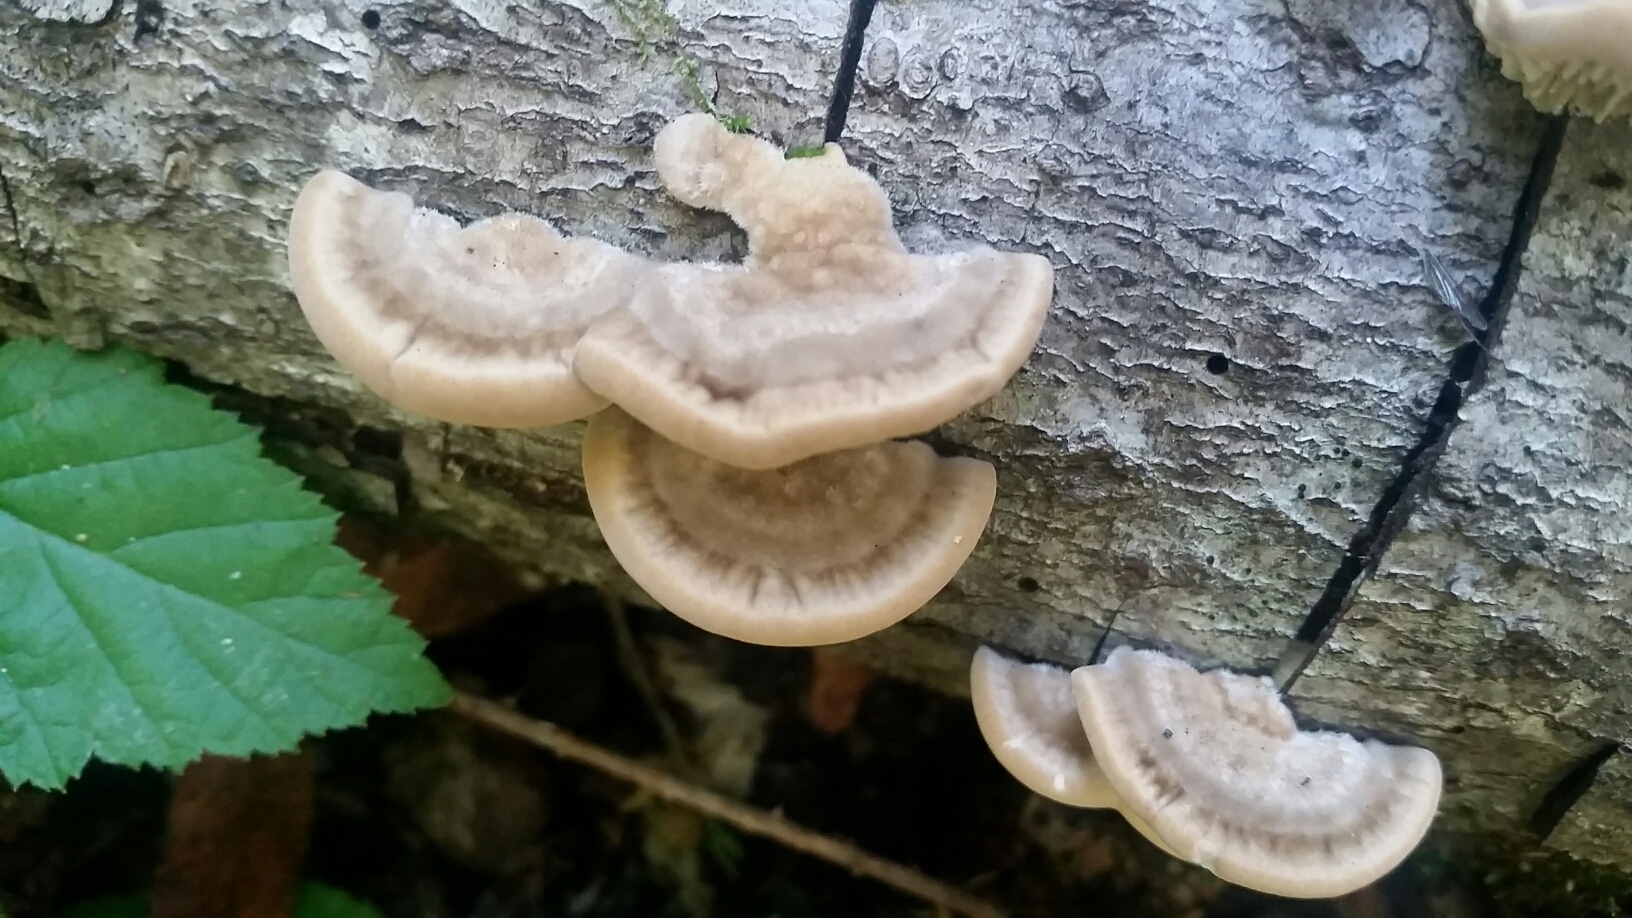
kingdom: Fungi
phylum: Basidiomycota
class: Agaricomycetes
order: Polyporales
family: Polyporaceae
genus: Lenzites
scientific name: Lenzites betulinus
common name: Birch mazegill
